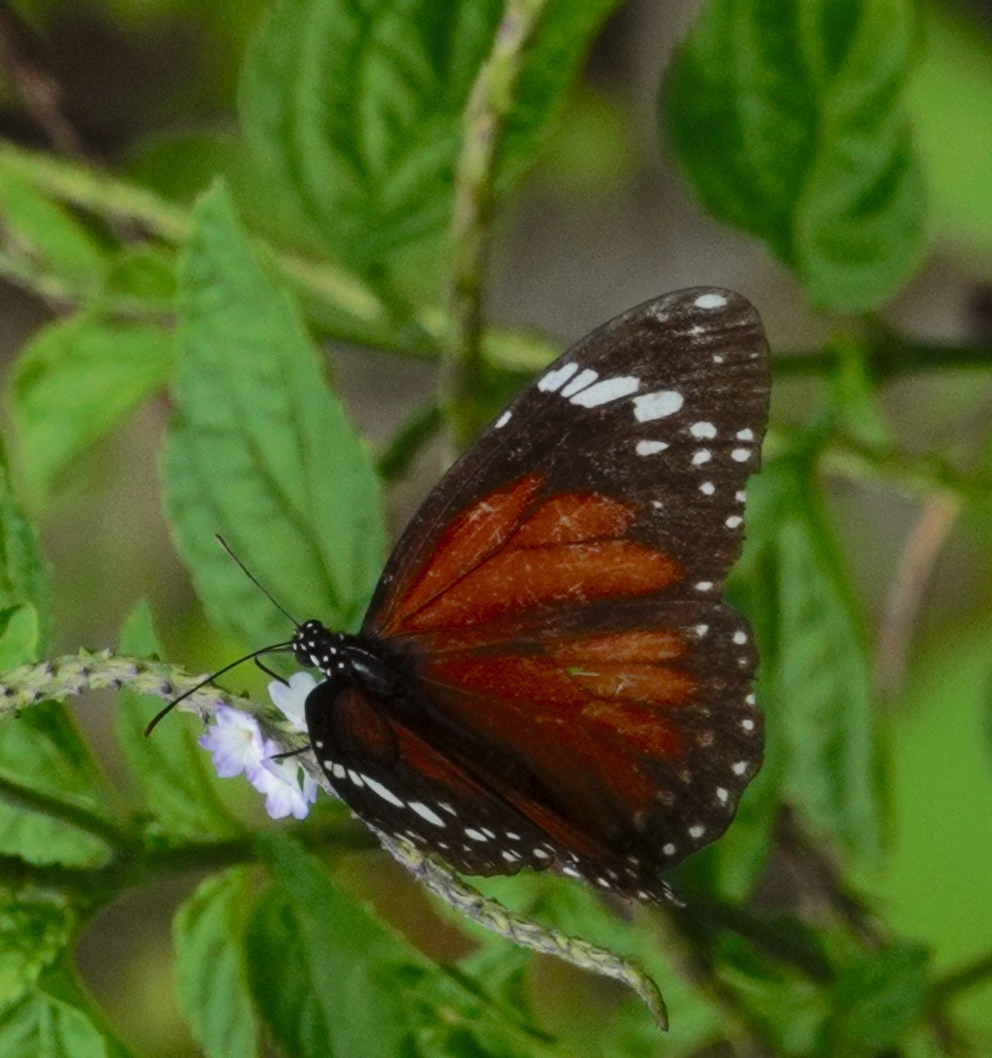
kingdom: Animalia
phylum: Arthropoda
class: Insecta
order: Lepidoptera
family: Nymphalidae
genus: Danaus
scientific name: Danaus affinis
